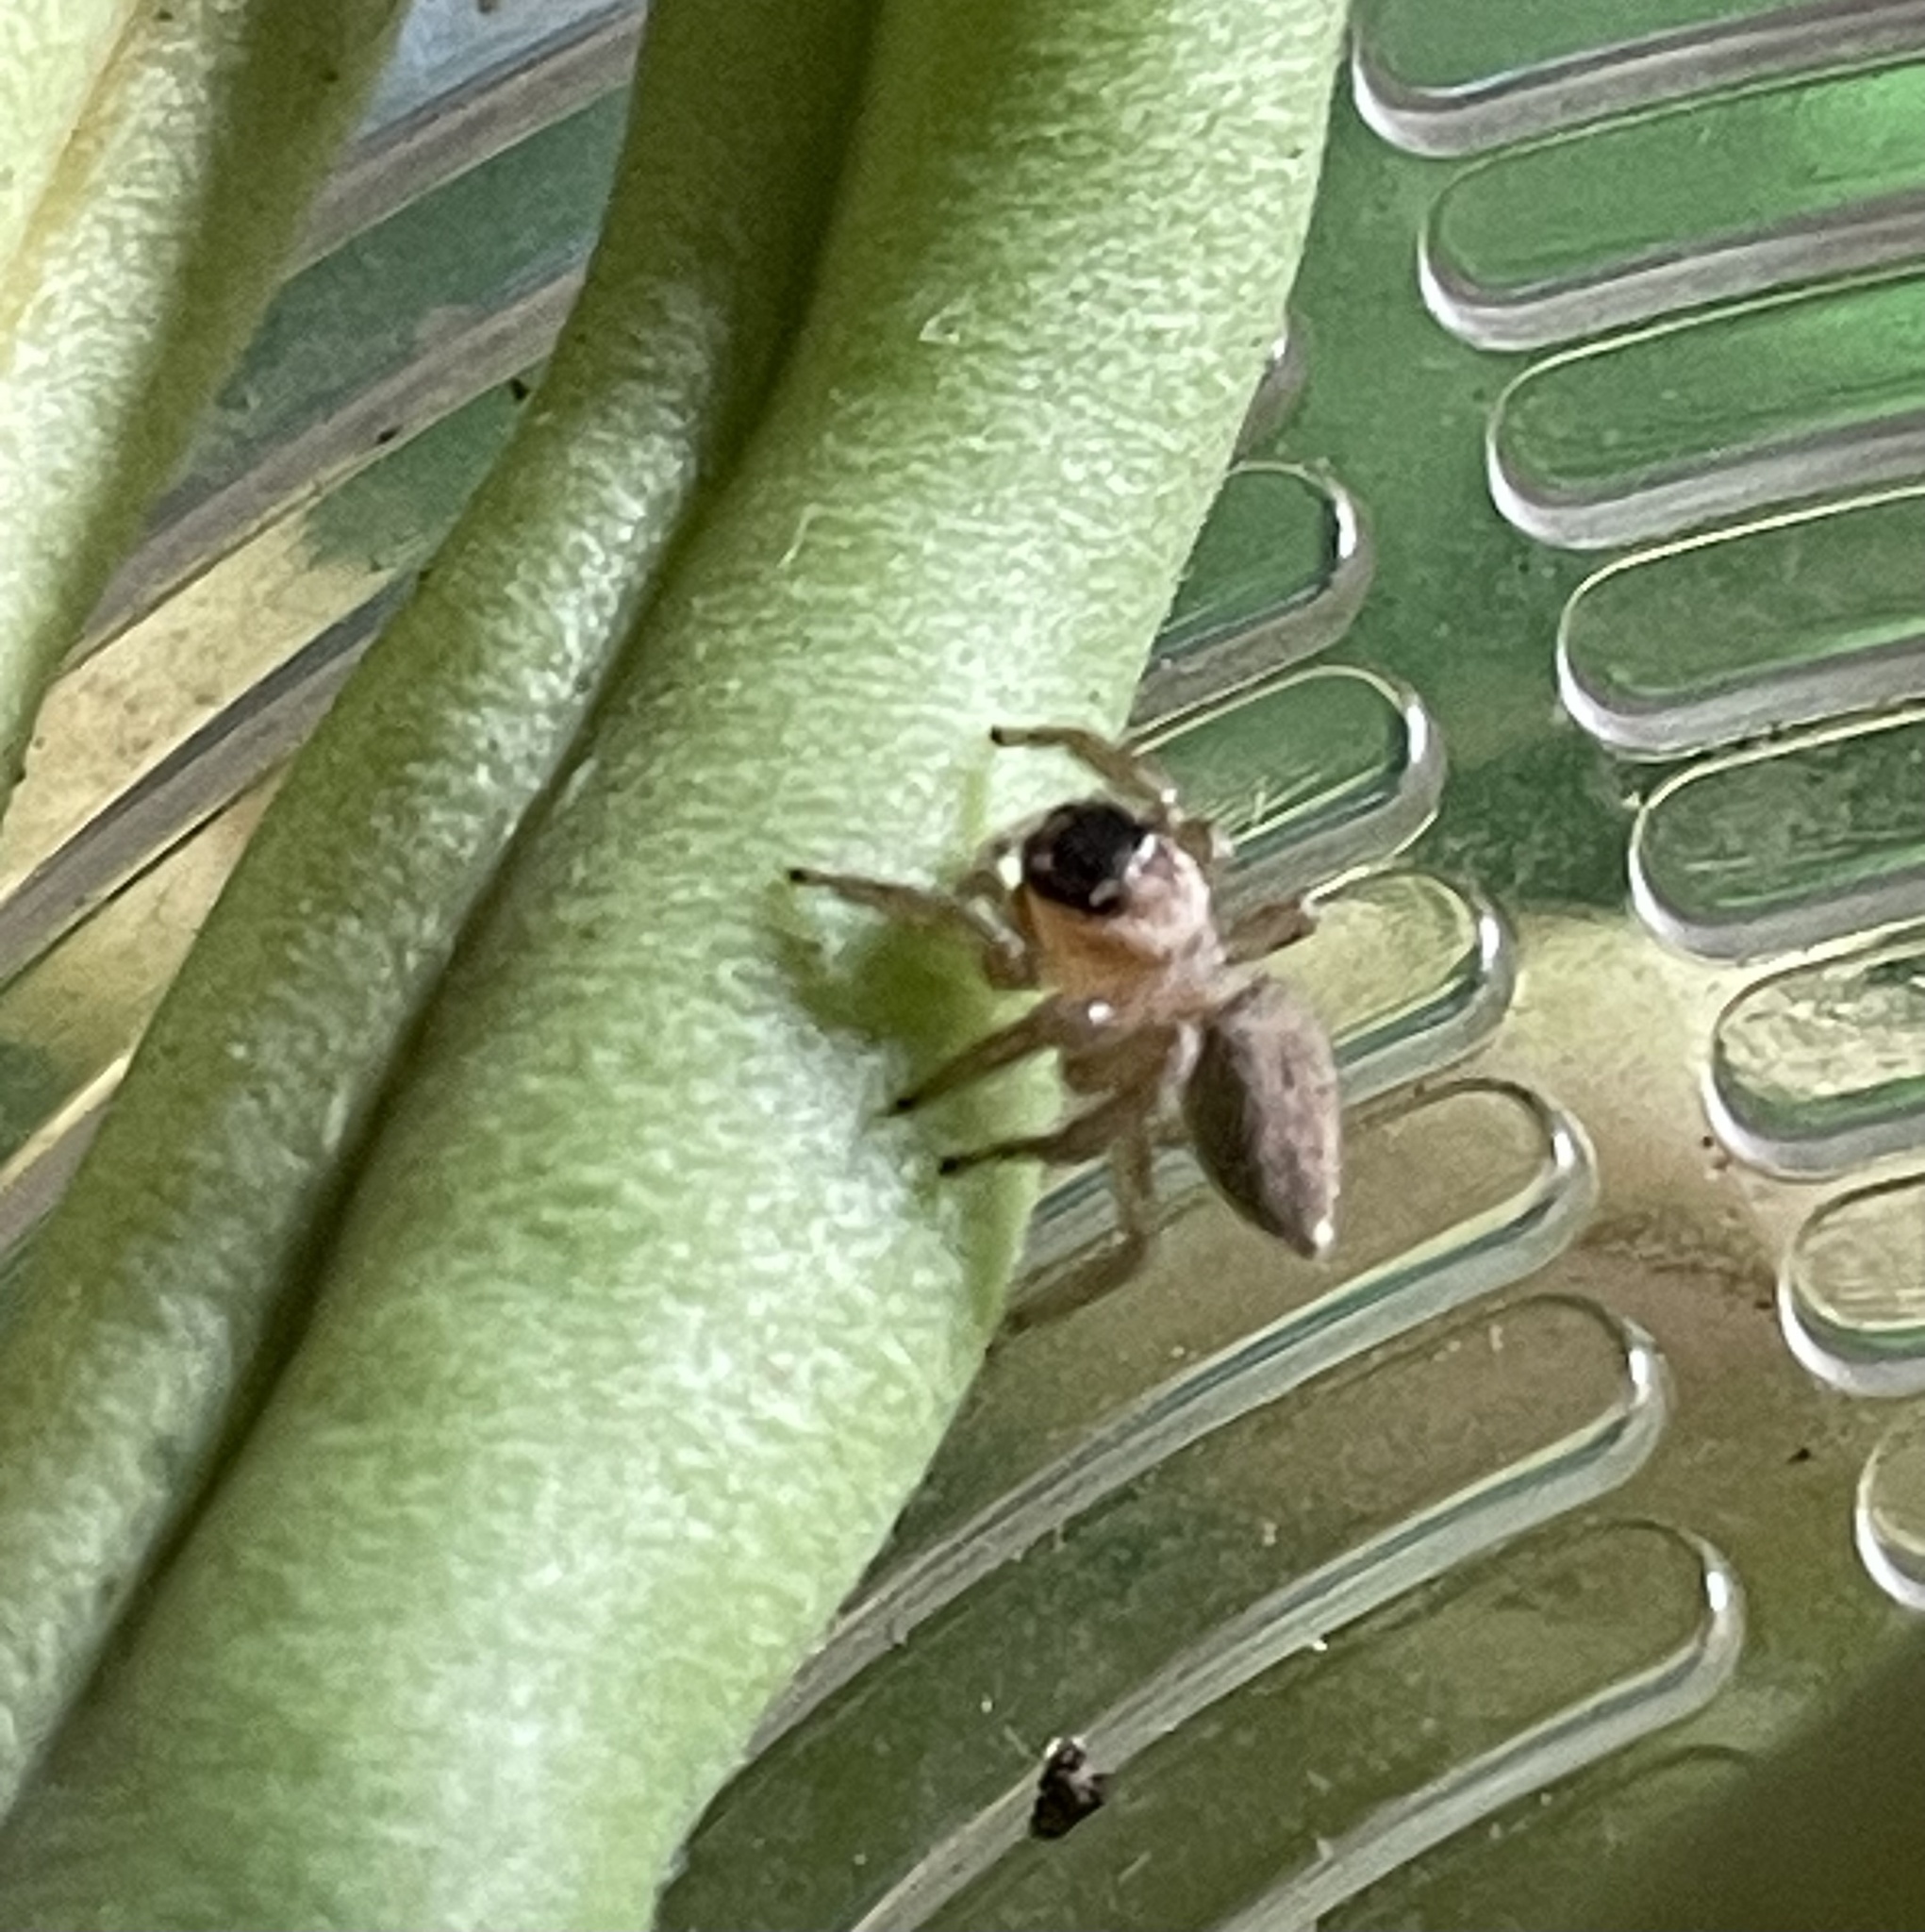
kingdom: Animalia
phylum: Arthropoda
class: Arachnida
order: Araneae
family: Salticidae
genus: Maratus
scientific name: Maratus griseus
